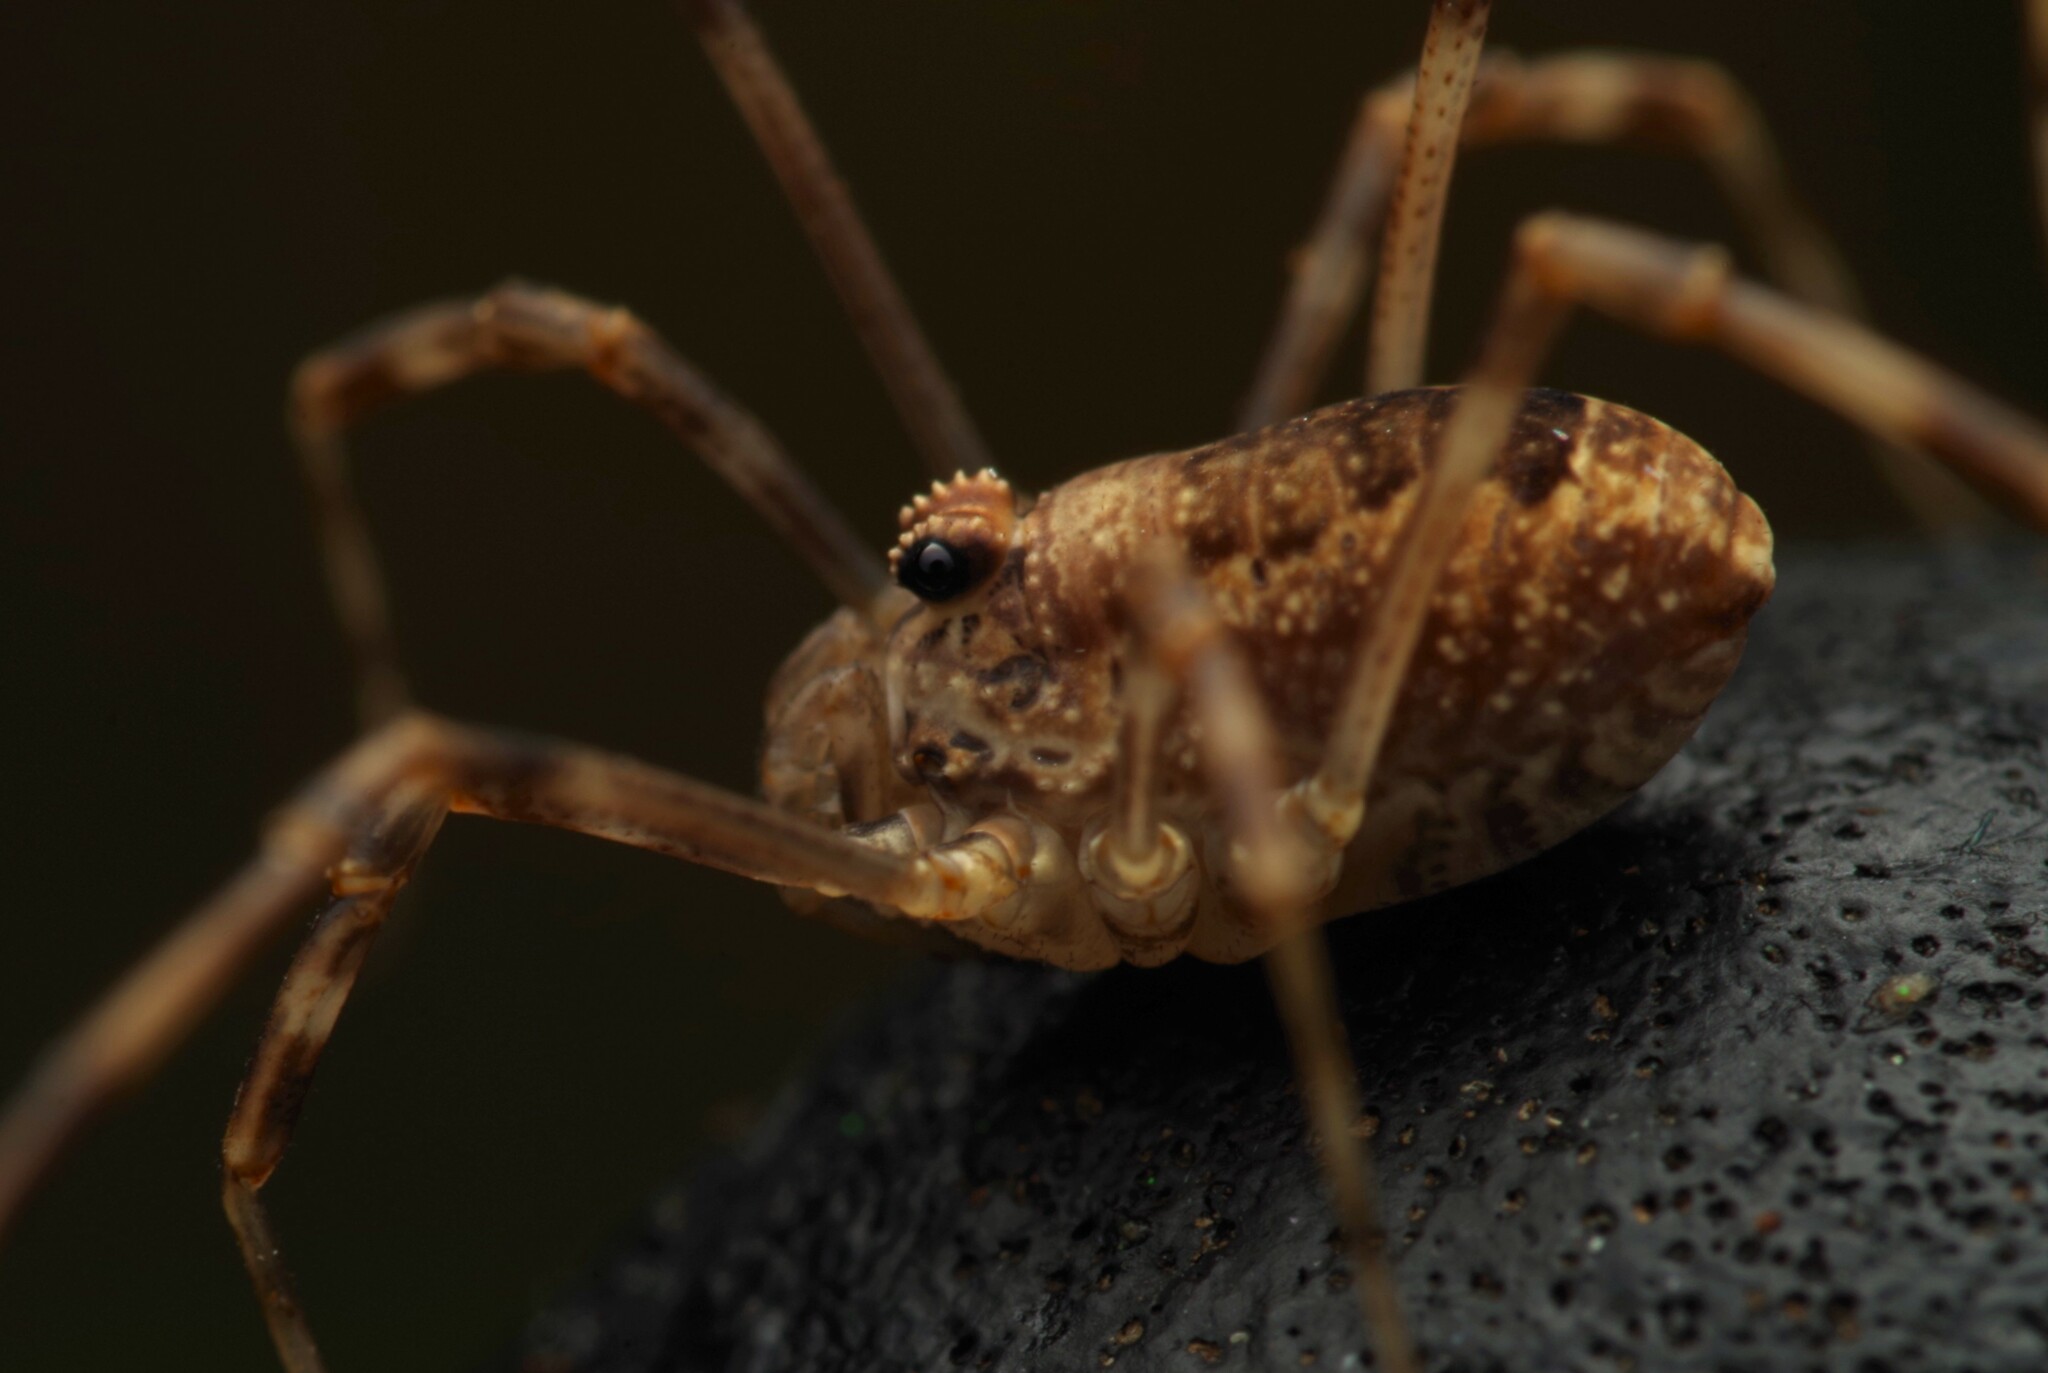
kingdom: Animalia
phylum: Arthropoda
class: Arachnida
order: Opiliones
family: Phalangiidae
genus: Rilaena
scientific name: Rilaena triangularis
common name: Spring harvestman
